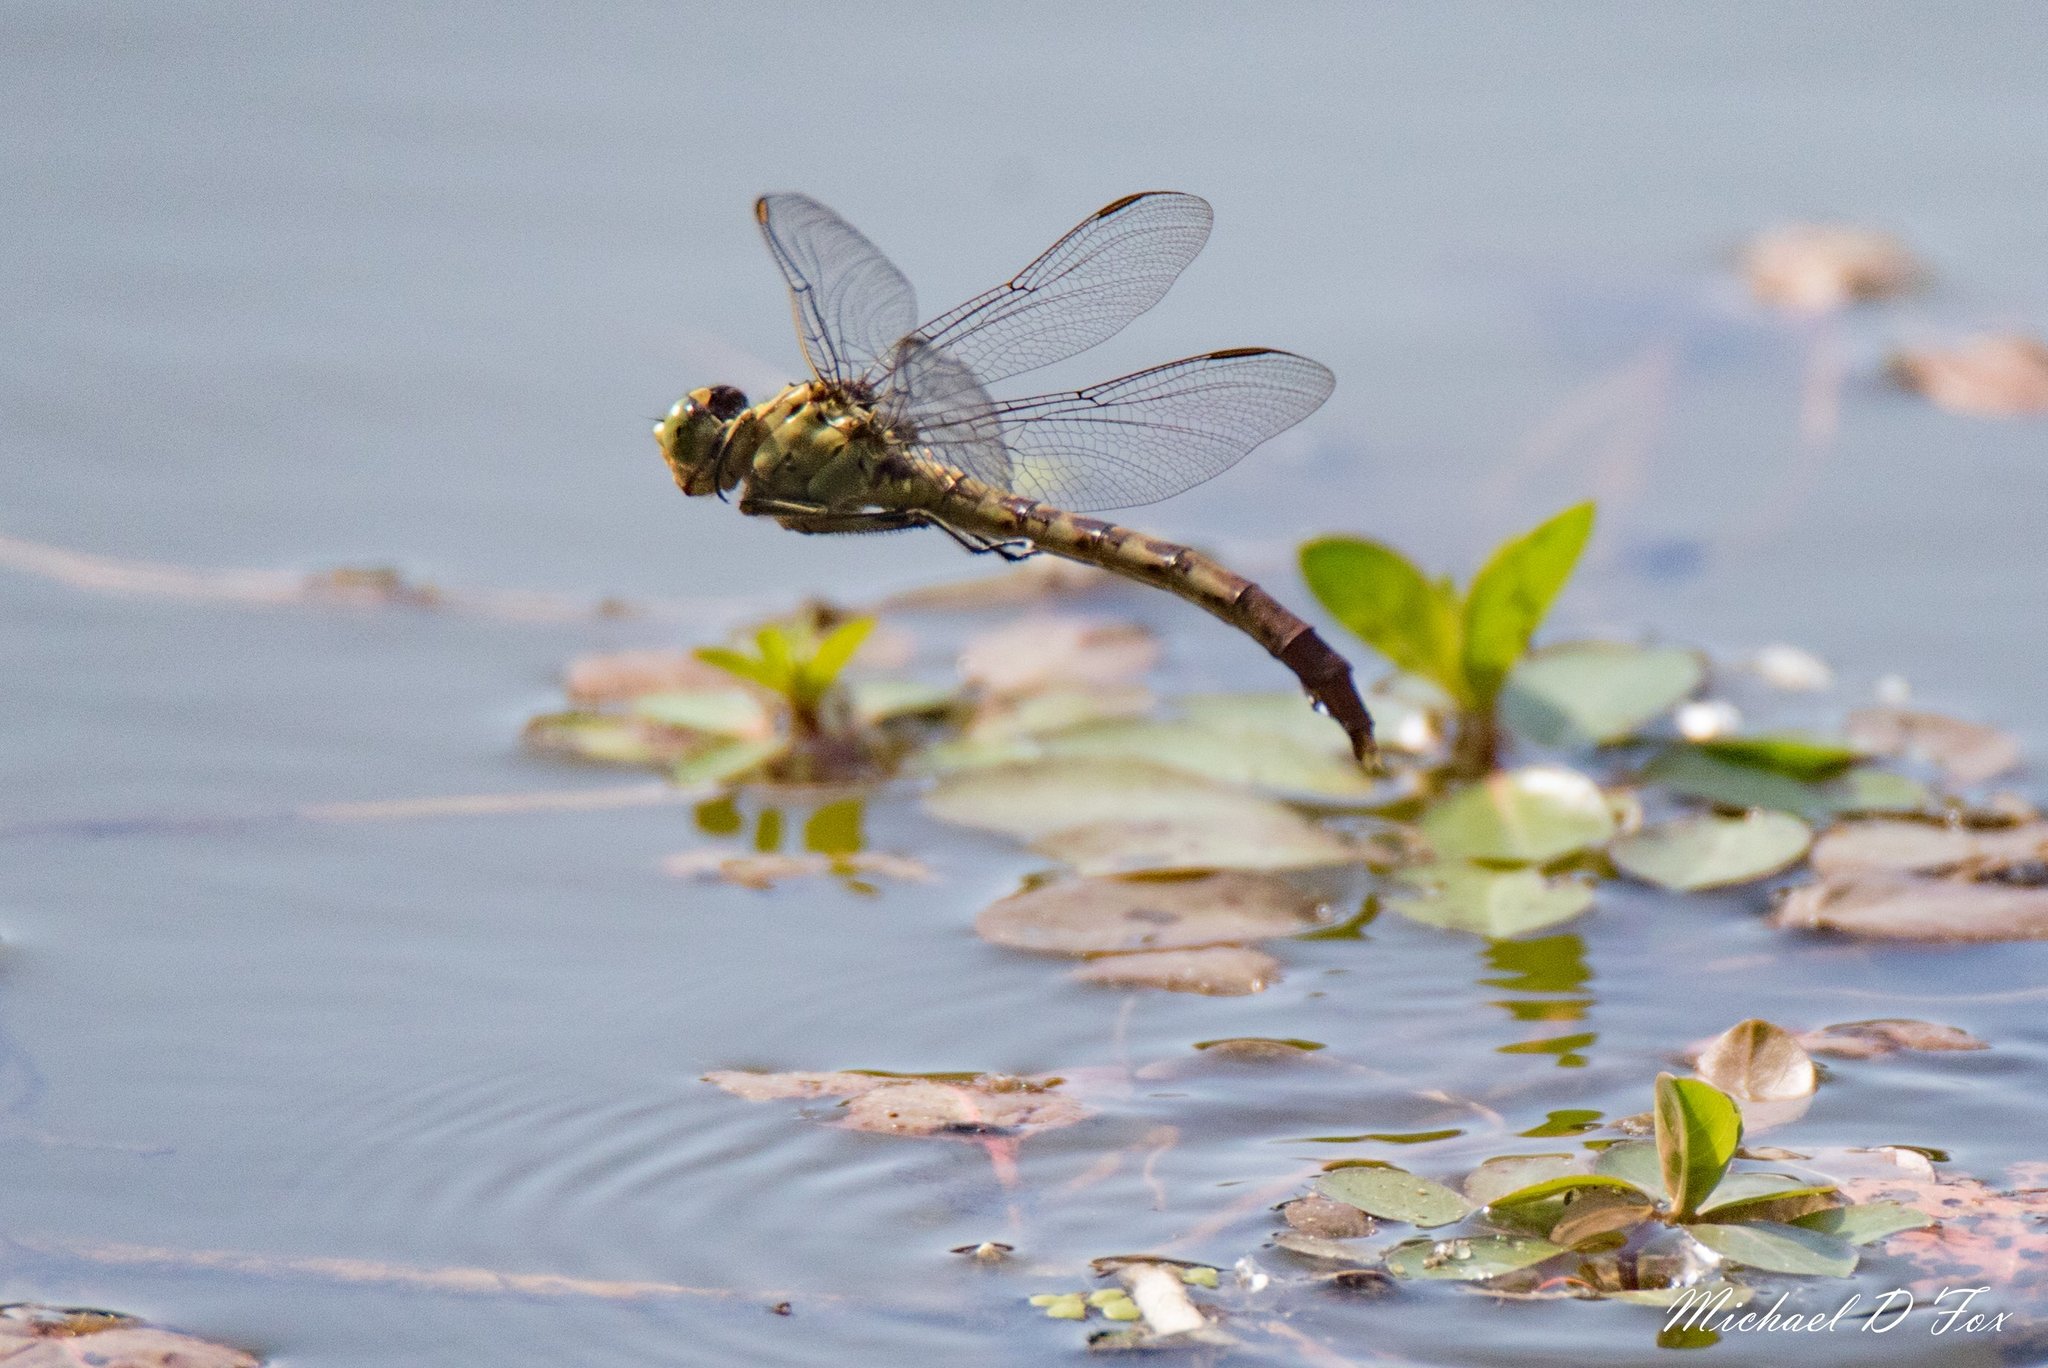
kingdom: Animalia
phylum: Arthropoda
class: Insecta
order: Odonata
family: Gomphidae
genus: Arigomphus
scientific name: Arigomphus submedianus
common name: Jade clubtail
